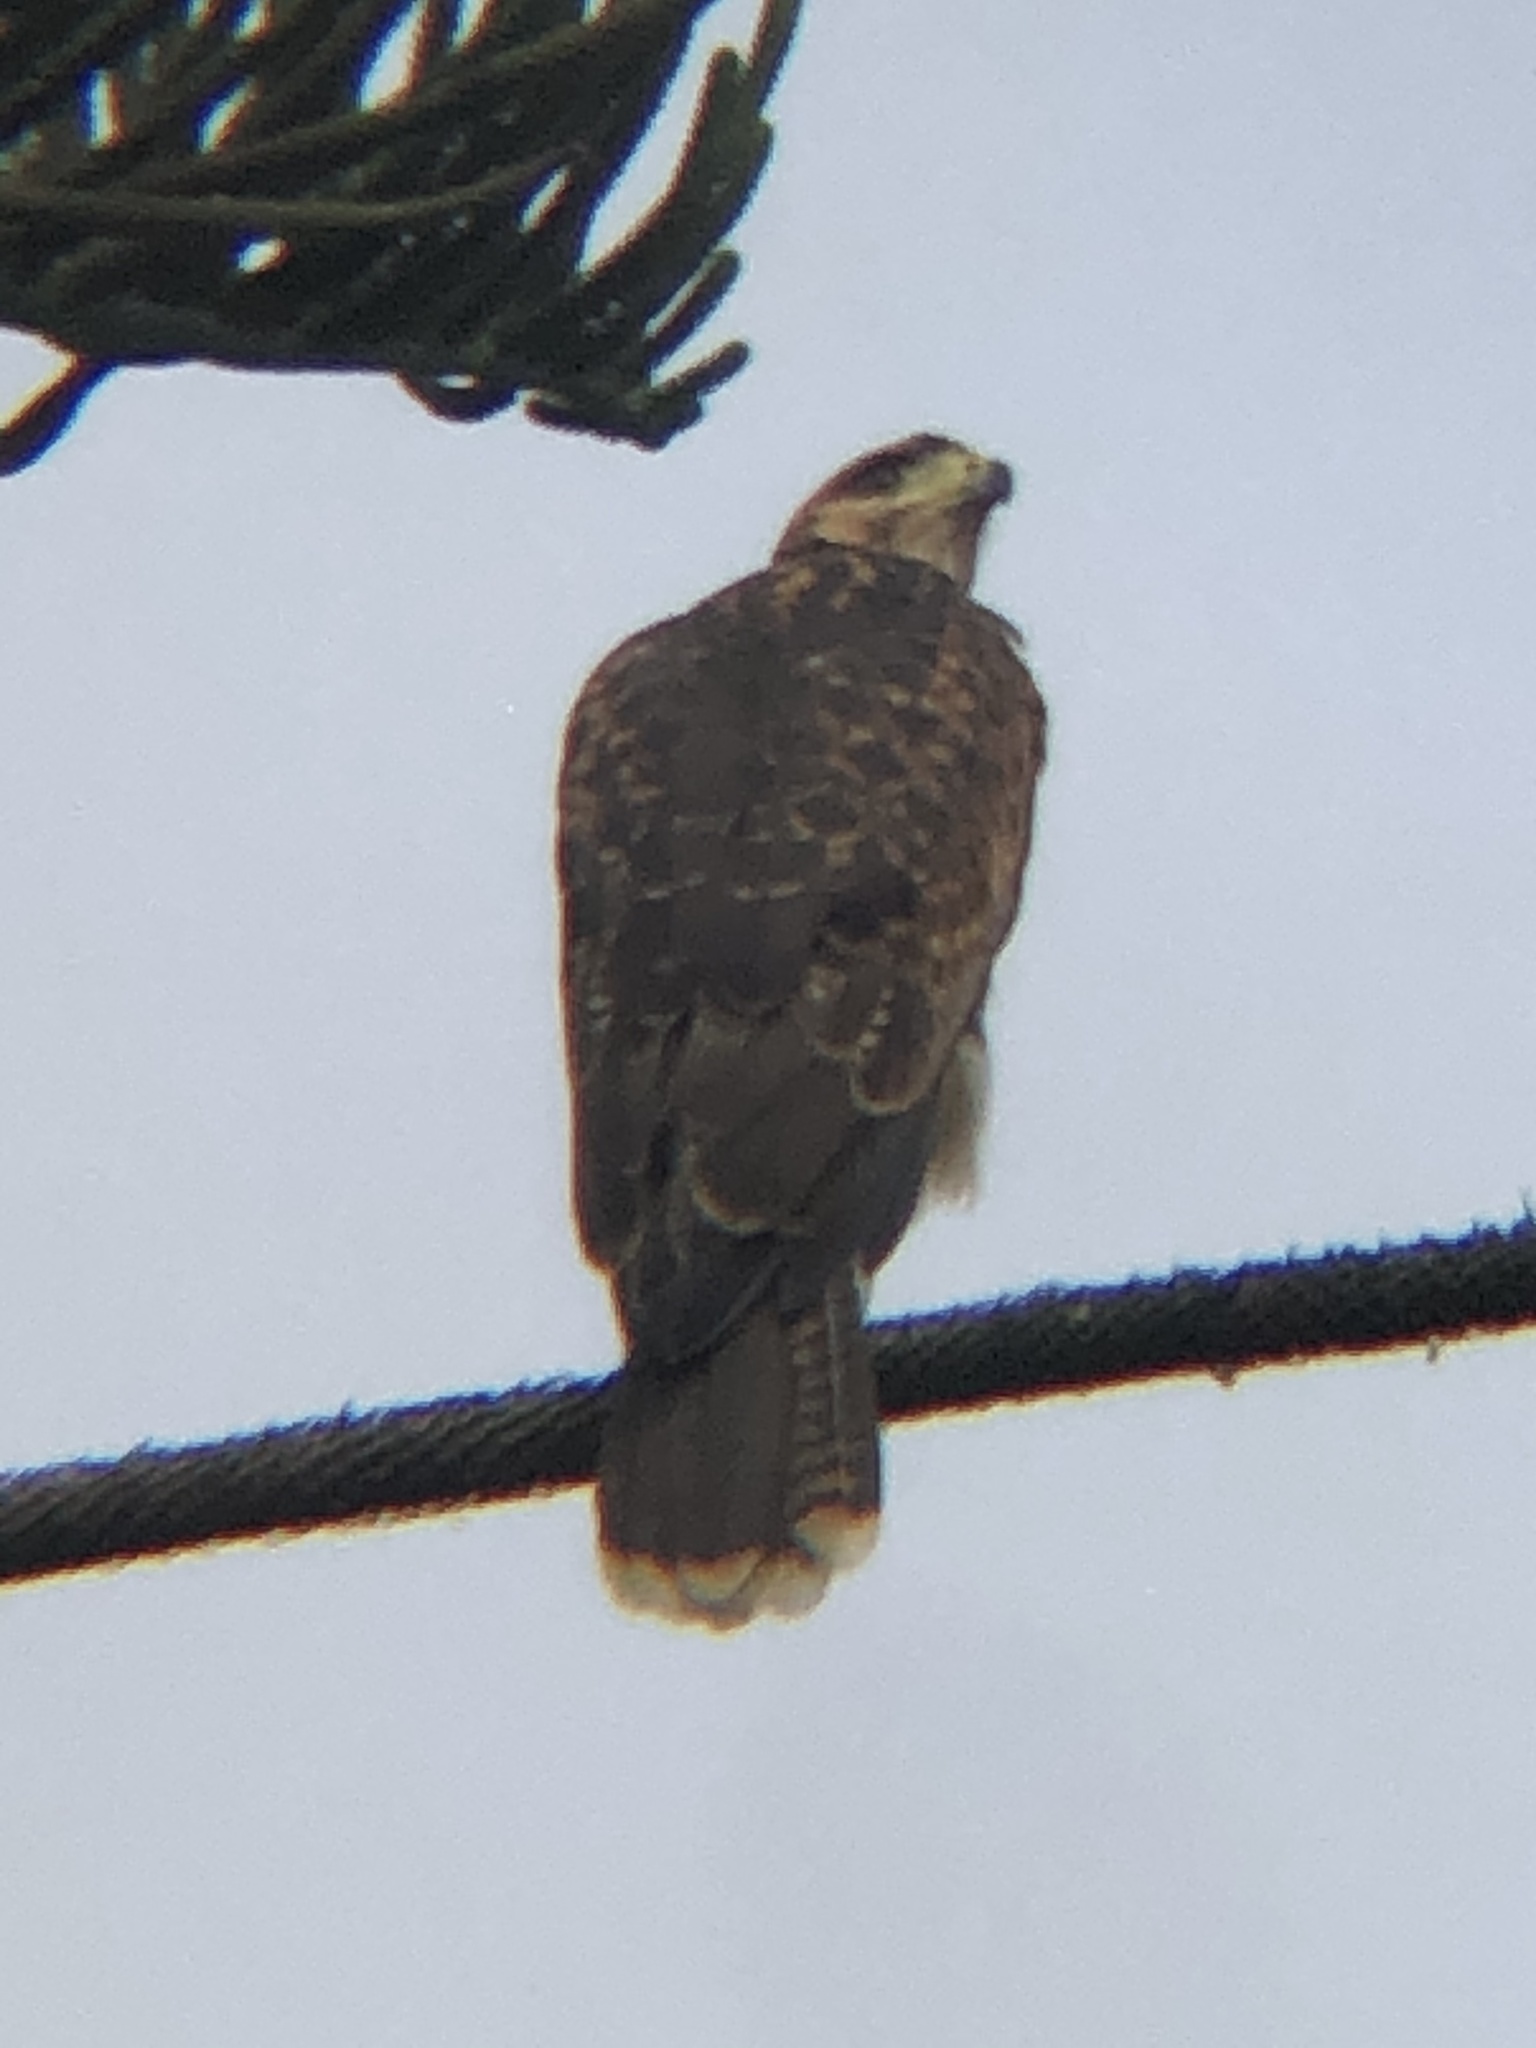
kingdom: Animalia
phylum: Chordata
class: Aves
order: Accipitriformes
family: Accipitridae
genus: Parabuteo
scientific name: Parabuteo unicinctus
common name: Harris's hawk
